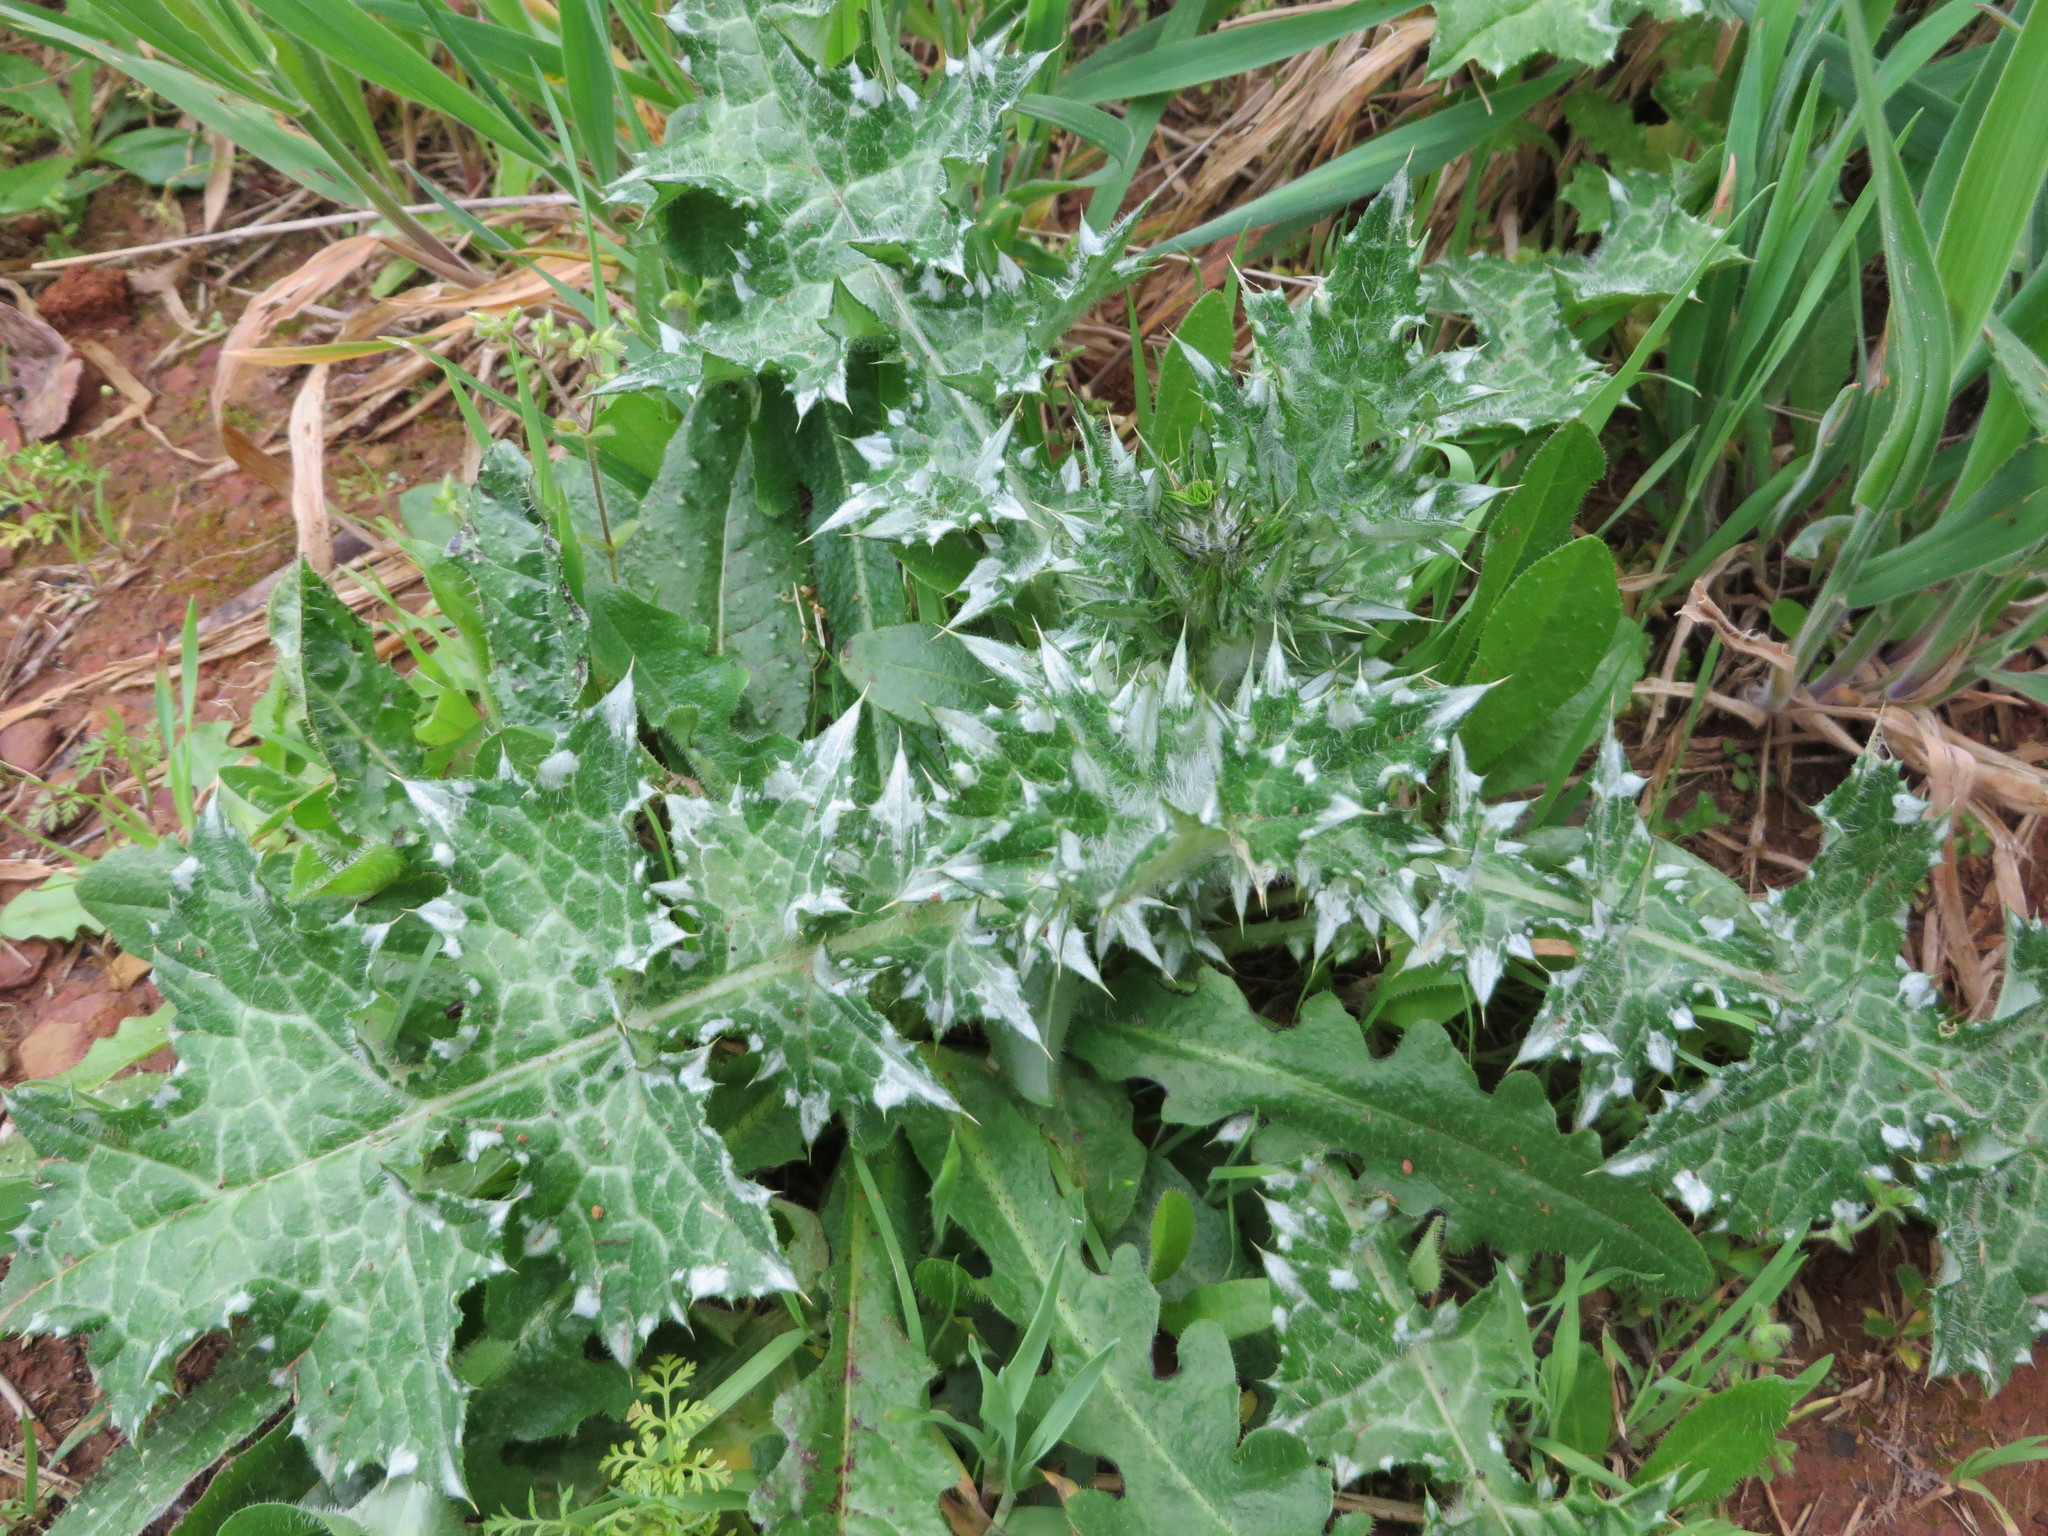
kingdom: Plantae
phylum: Tracheophyta
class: Magnoliopsida
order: Asterales
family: Asteraceae
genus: Carduus
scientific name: Carduus pycnocephalus
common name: Plymouth thistle
